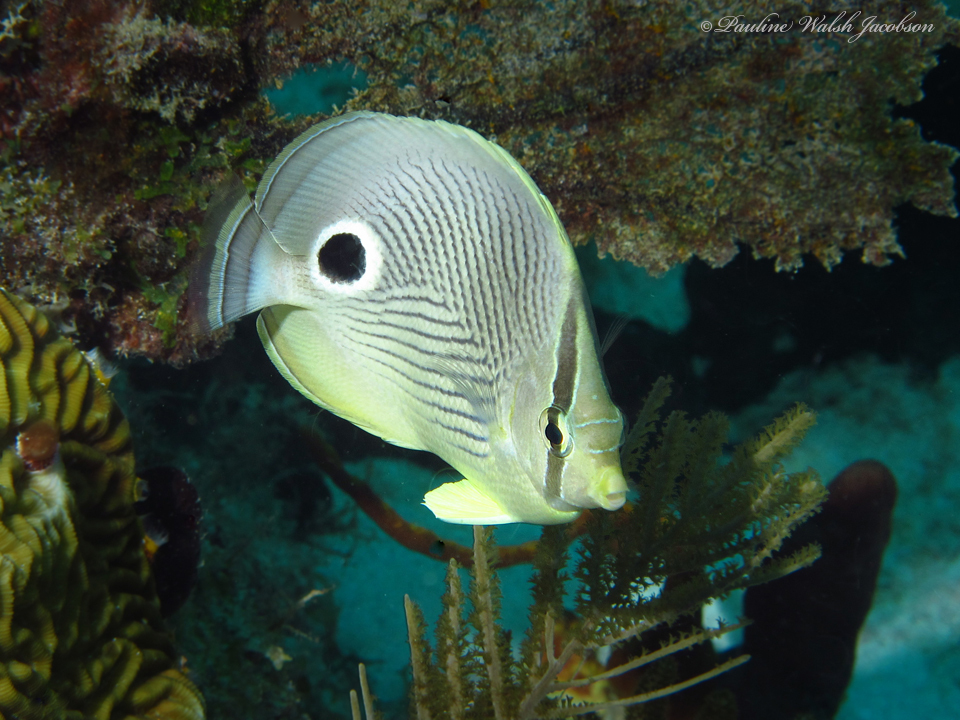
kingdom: Animalia
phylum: Chordata
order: Perciformes
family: Chaetodontidae
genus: Chaetodon
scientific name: Chaetodon capistratus
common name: Kete
